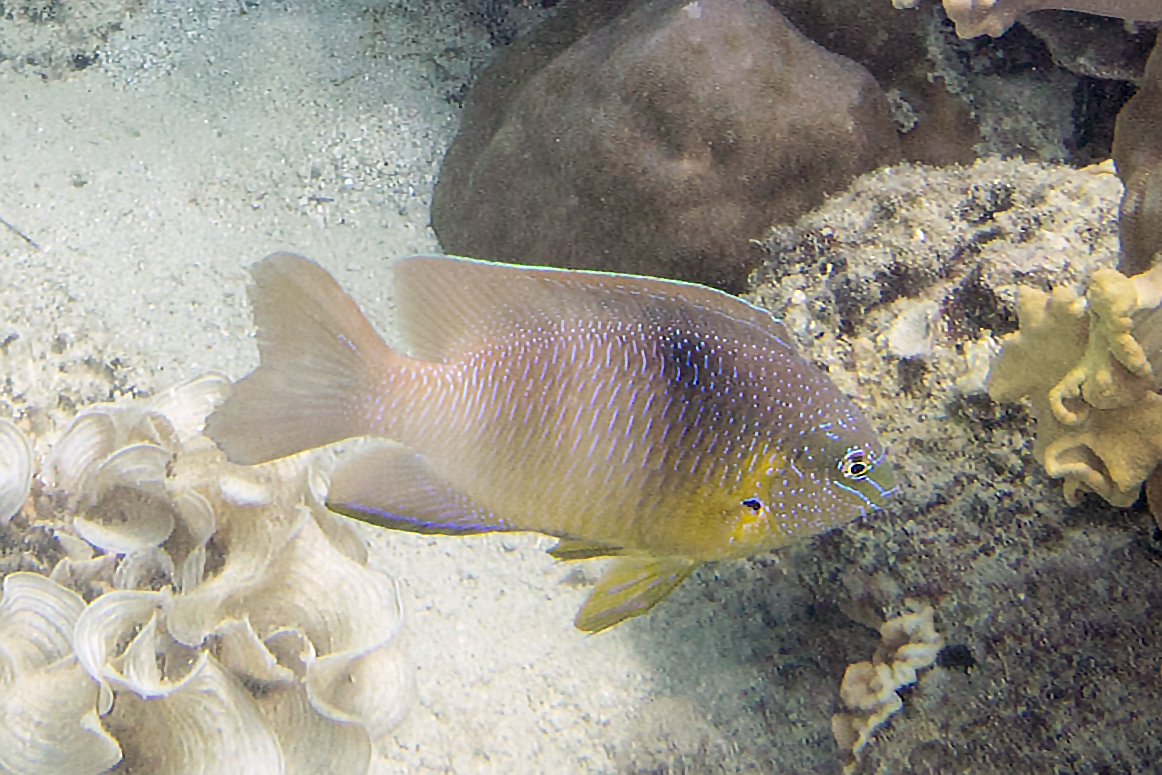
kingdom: Animalia
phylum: Chordata
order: Perciformes
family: Pomacentridae
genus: Dischistodus
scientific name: Dischistodus prosopotaenia
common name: Honey-head damsel
